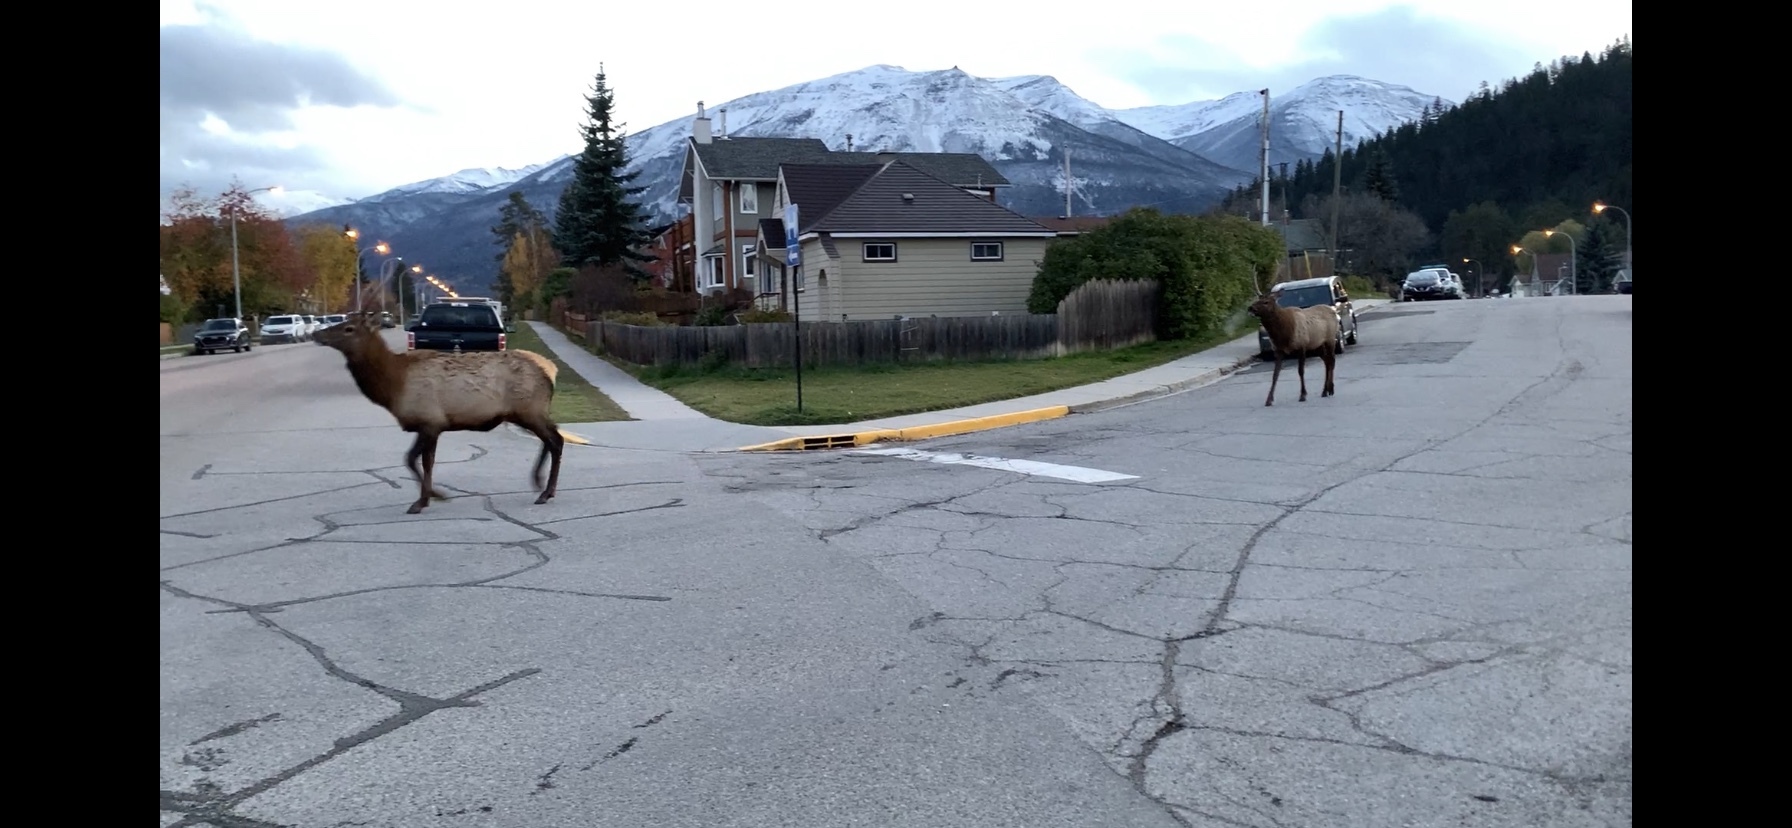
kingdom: Animalia
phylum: Chordata
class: Mammalia
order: Artiodactyla
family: Cervidae
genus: Cervus
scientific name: Cervus elaphus
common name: Red deer
